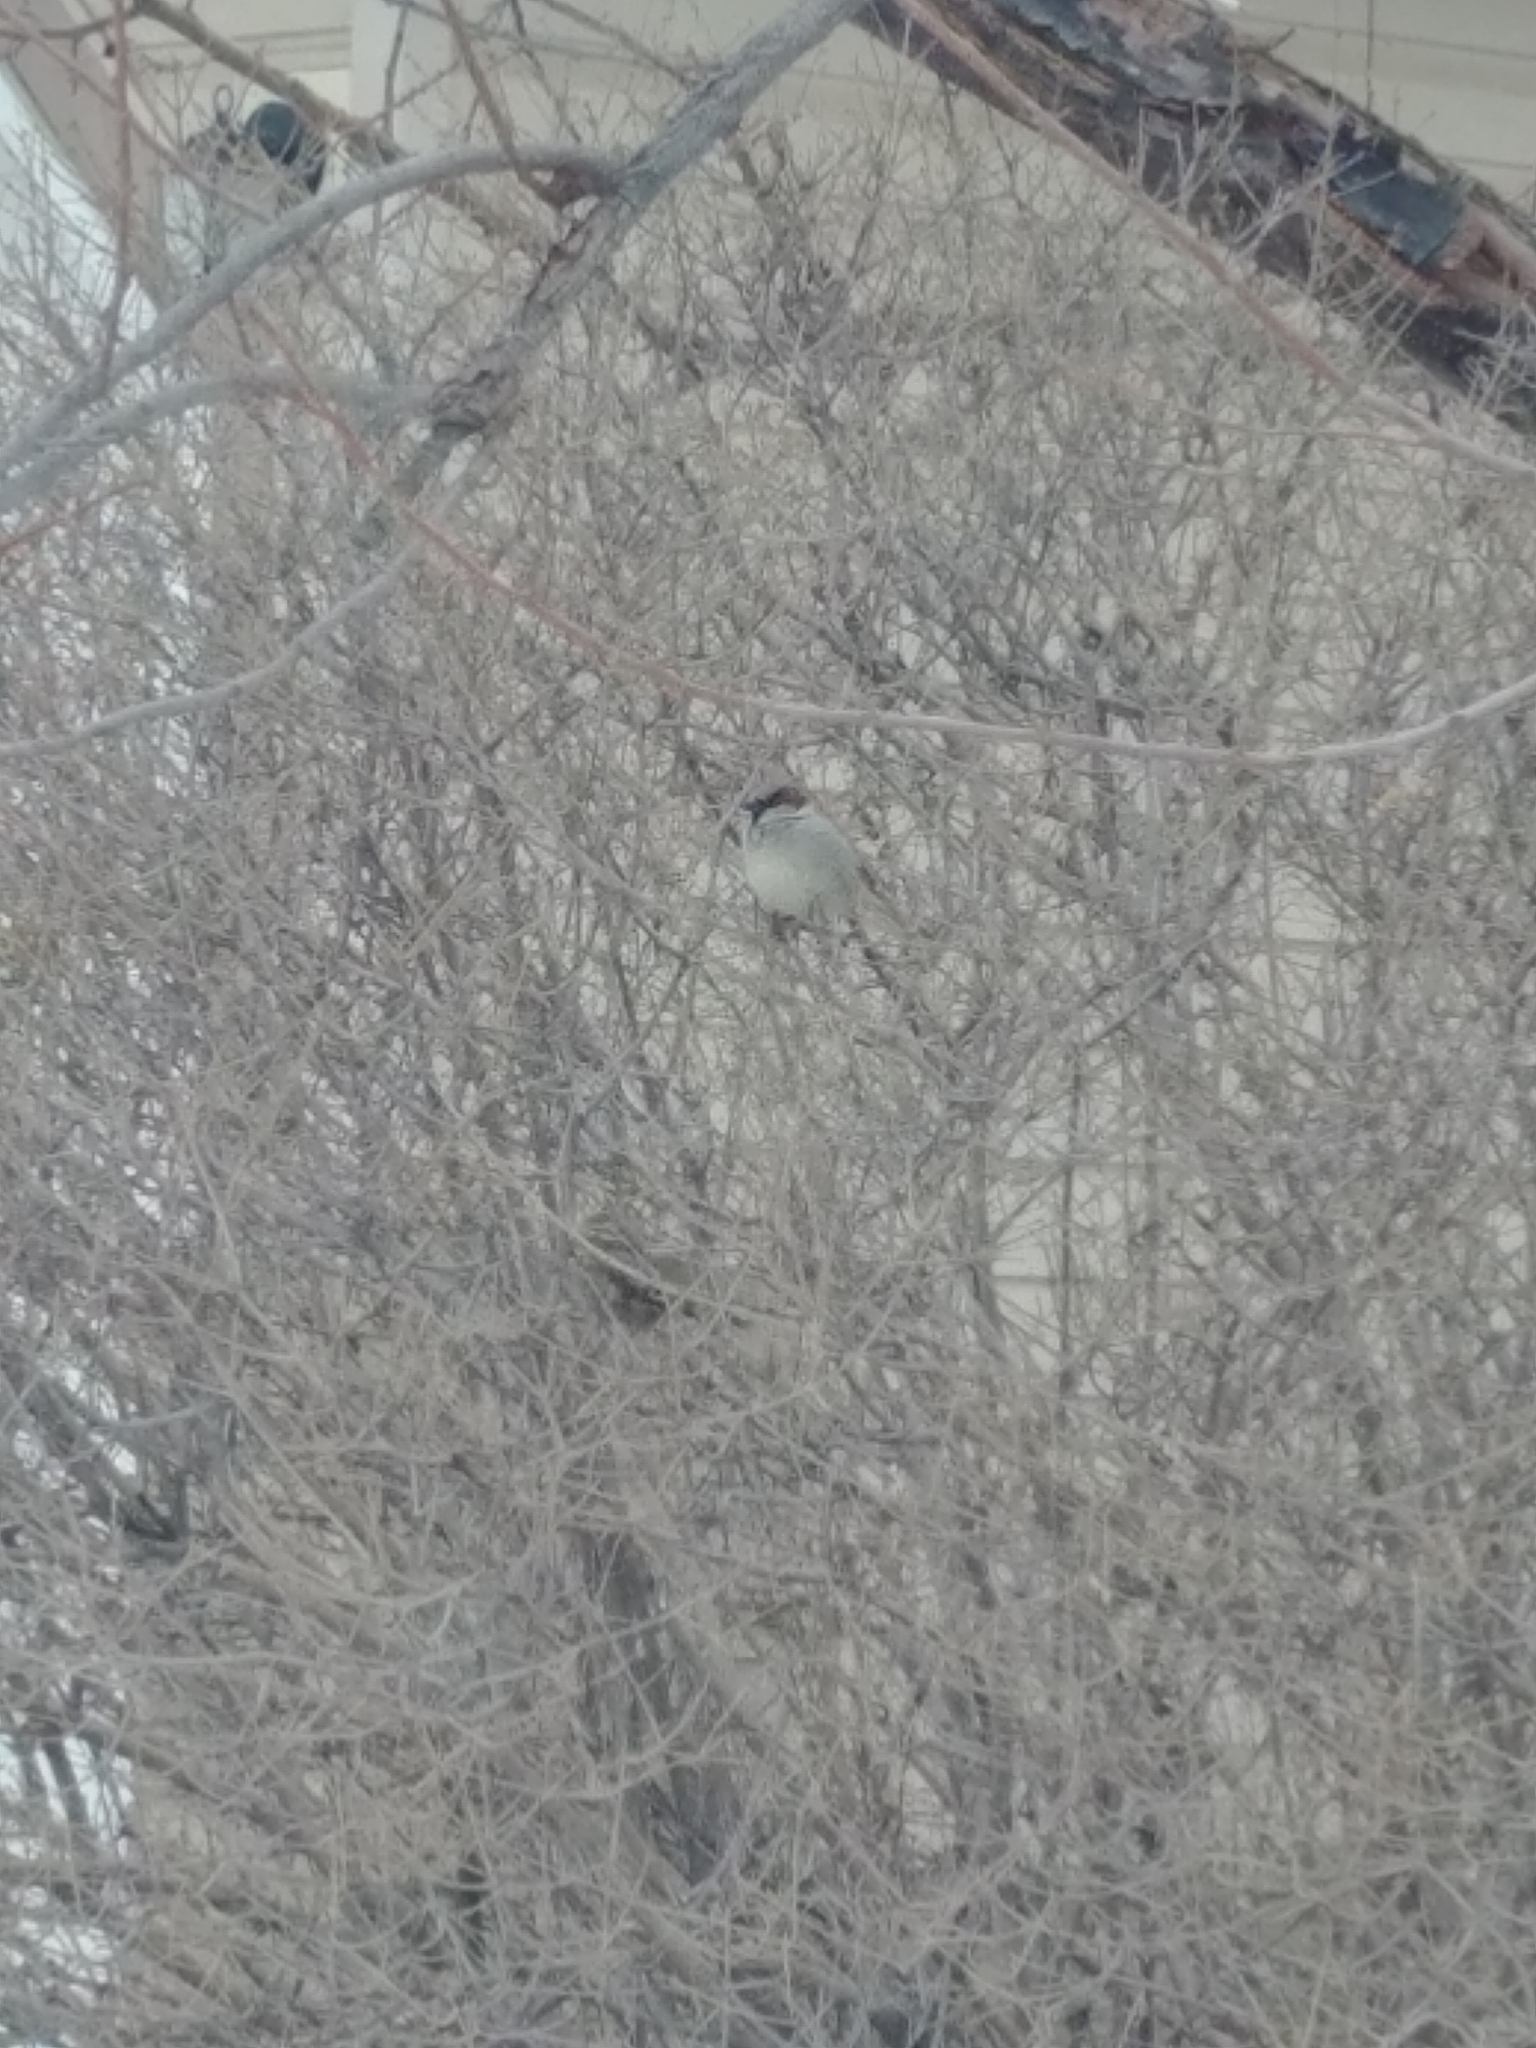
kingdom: Animalia
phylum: Chordata
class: Aves
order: Passeriformes
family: Passeridae
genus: Passer
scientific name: Passer domesticus
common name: House sparrow
